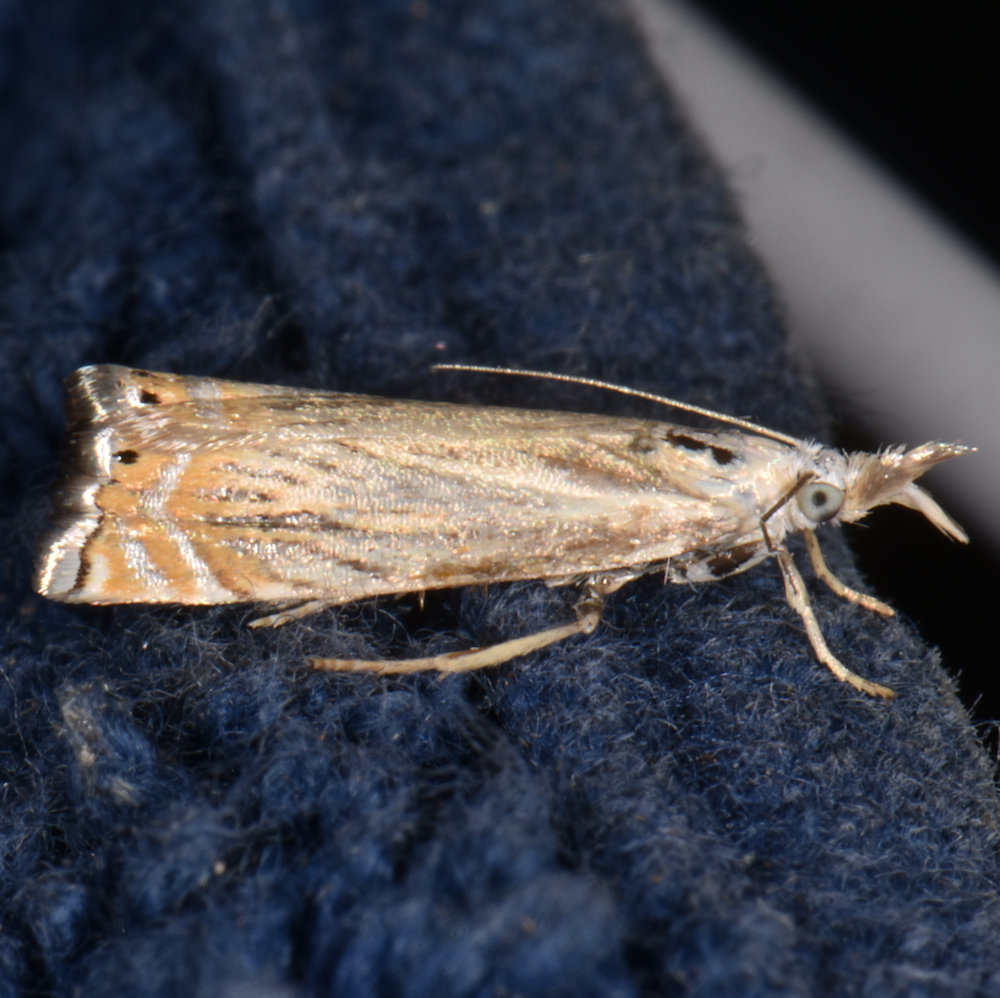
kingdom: Animalia
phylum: Arthropoda
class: Insecta
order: Lepidoptera
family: Crambidae
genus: Chrysoteuchia
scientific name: Chrysoteuchia topiarius
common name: Topiary grass-veneer
